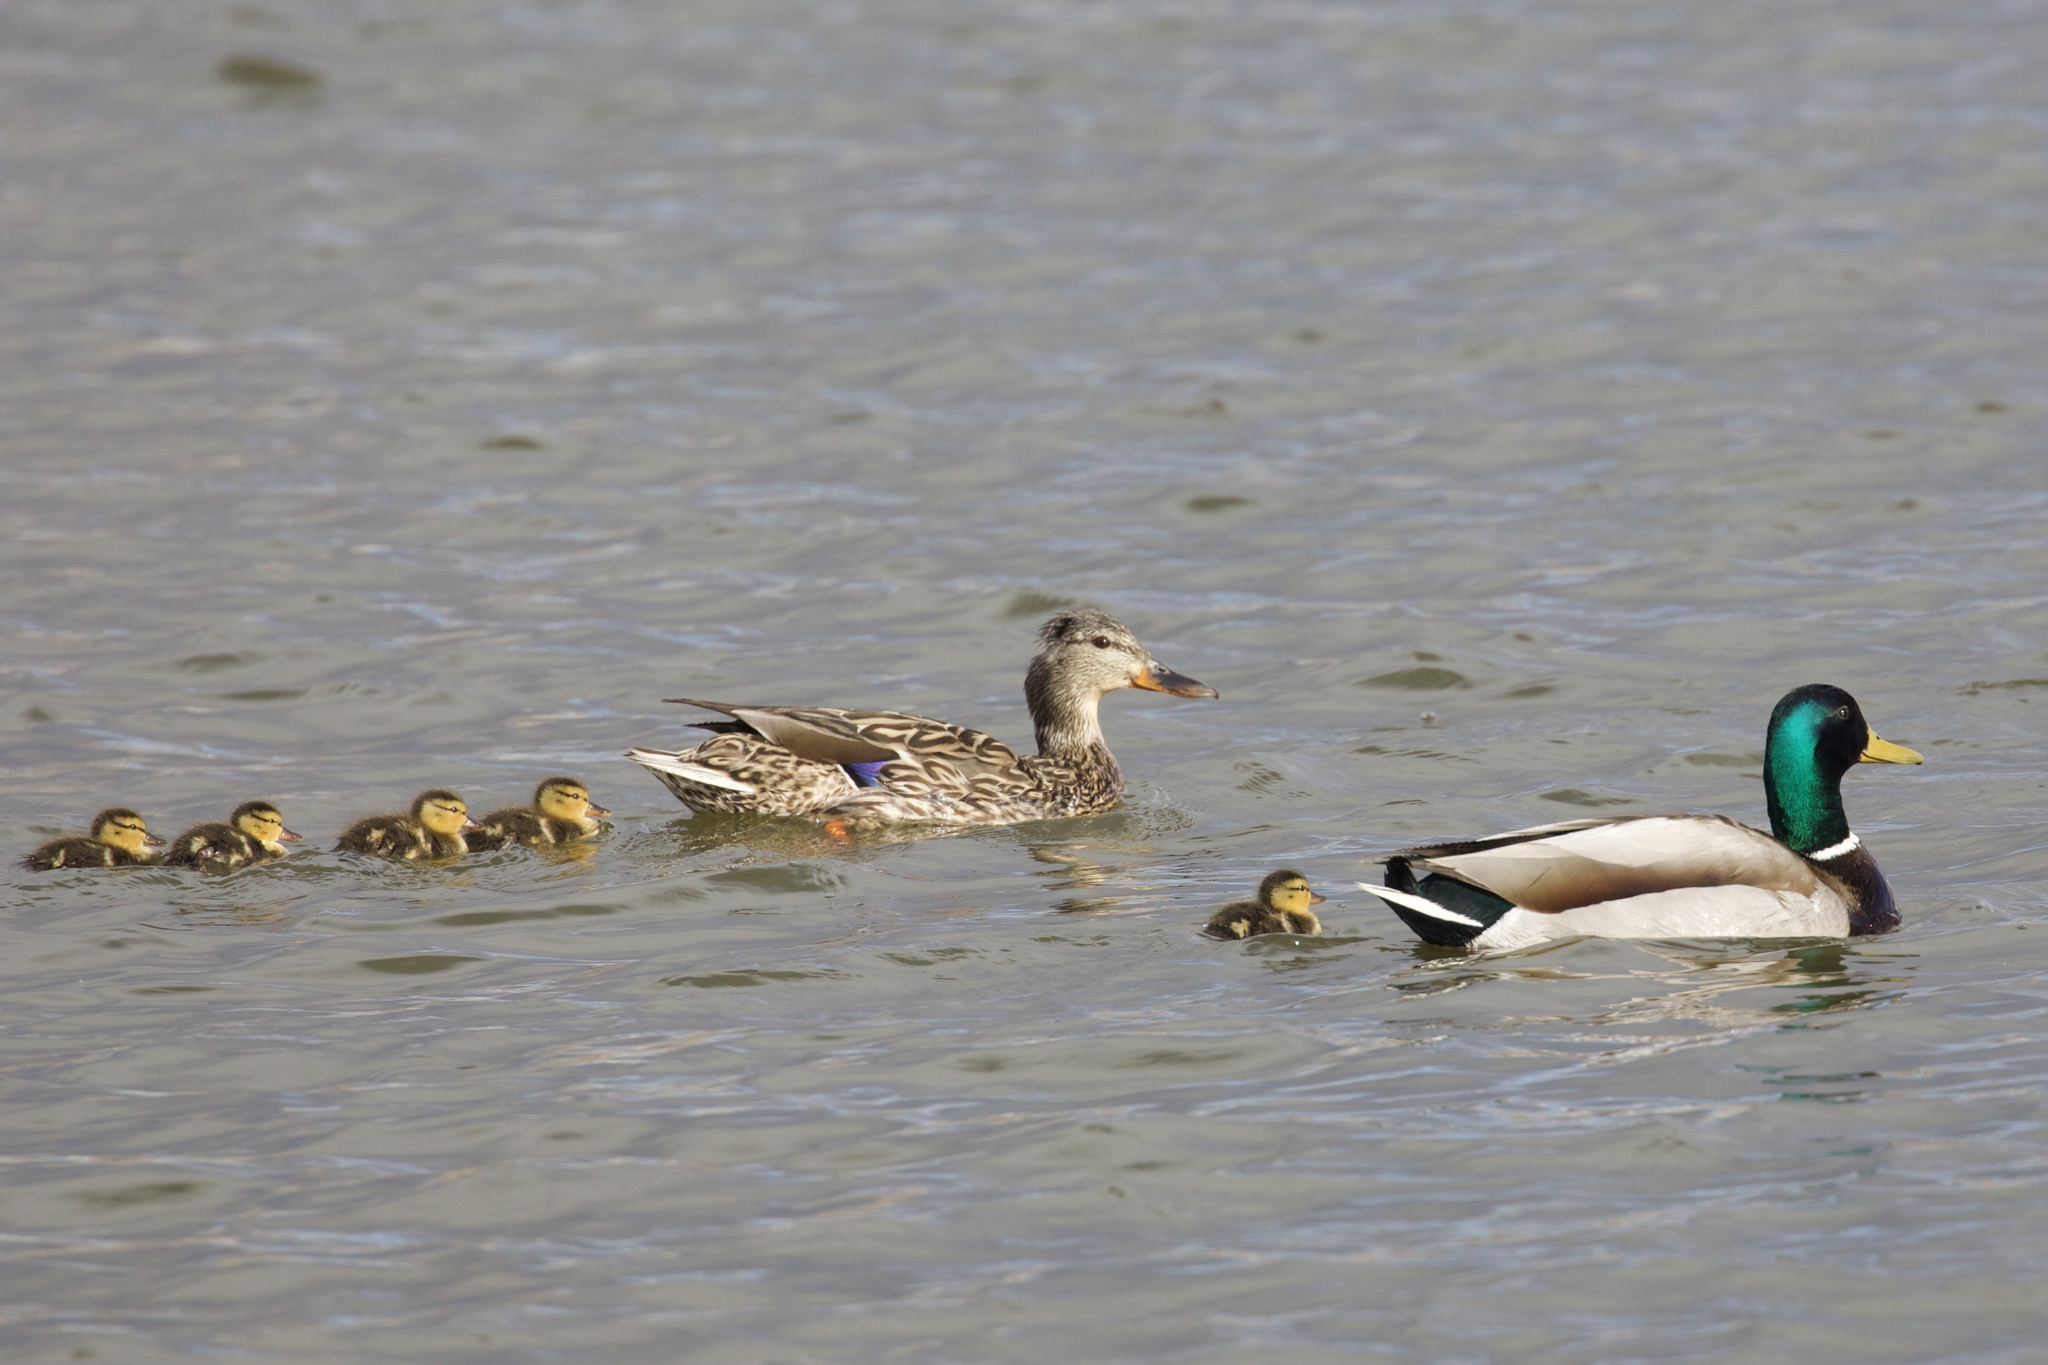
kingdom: Animalia
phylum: Chordata
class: Aves
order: Anseriformes
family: Anatidae
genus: Anas
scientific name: Anas platyrhynchos
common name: Mallard
